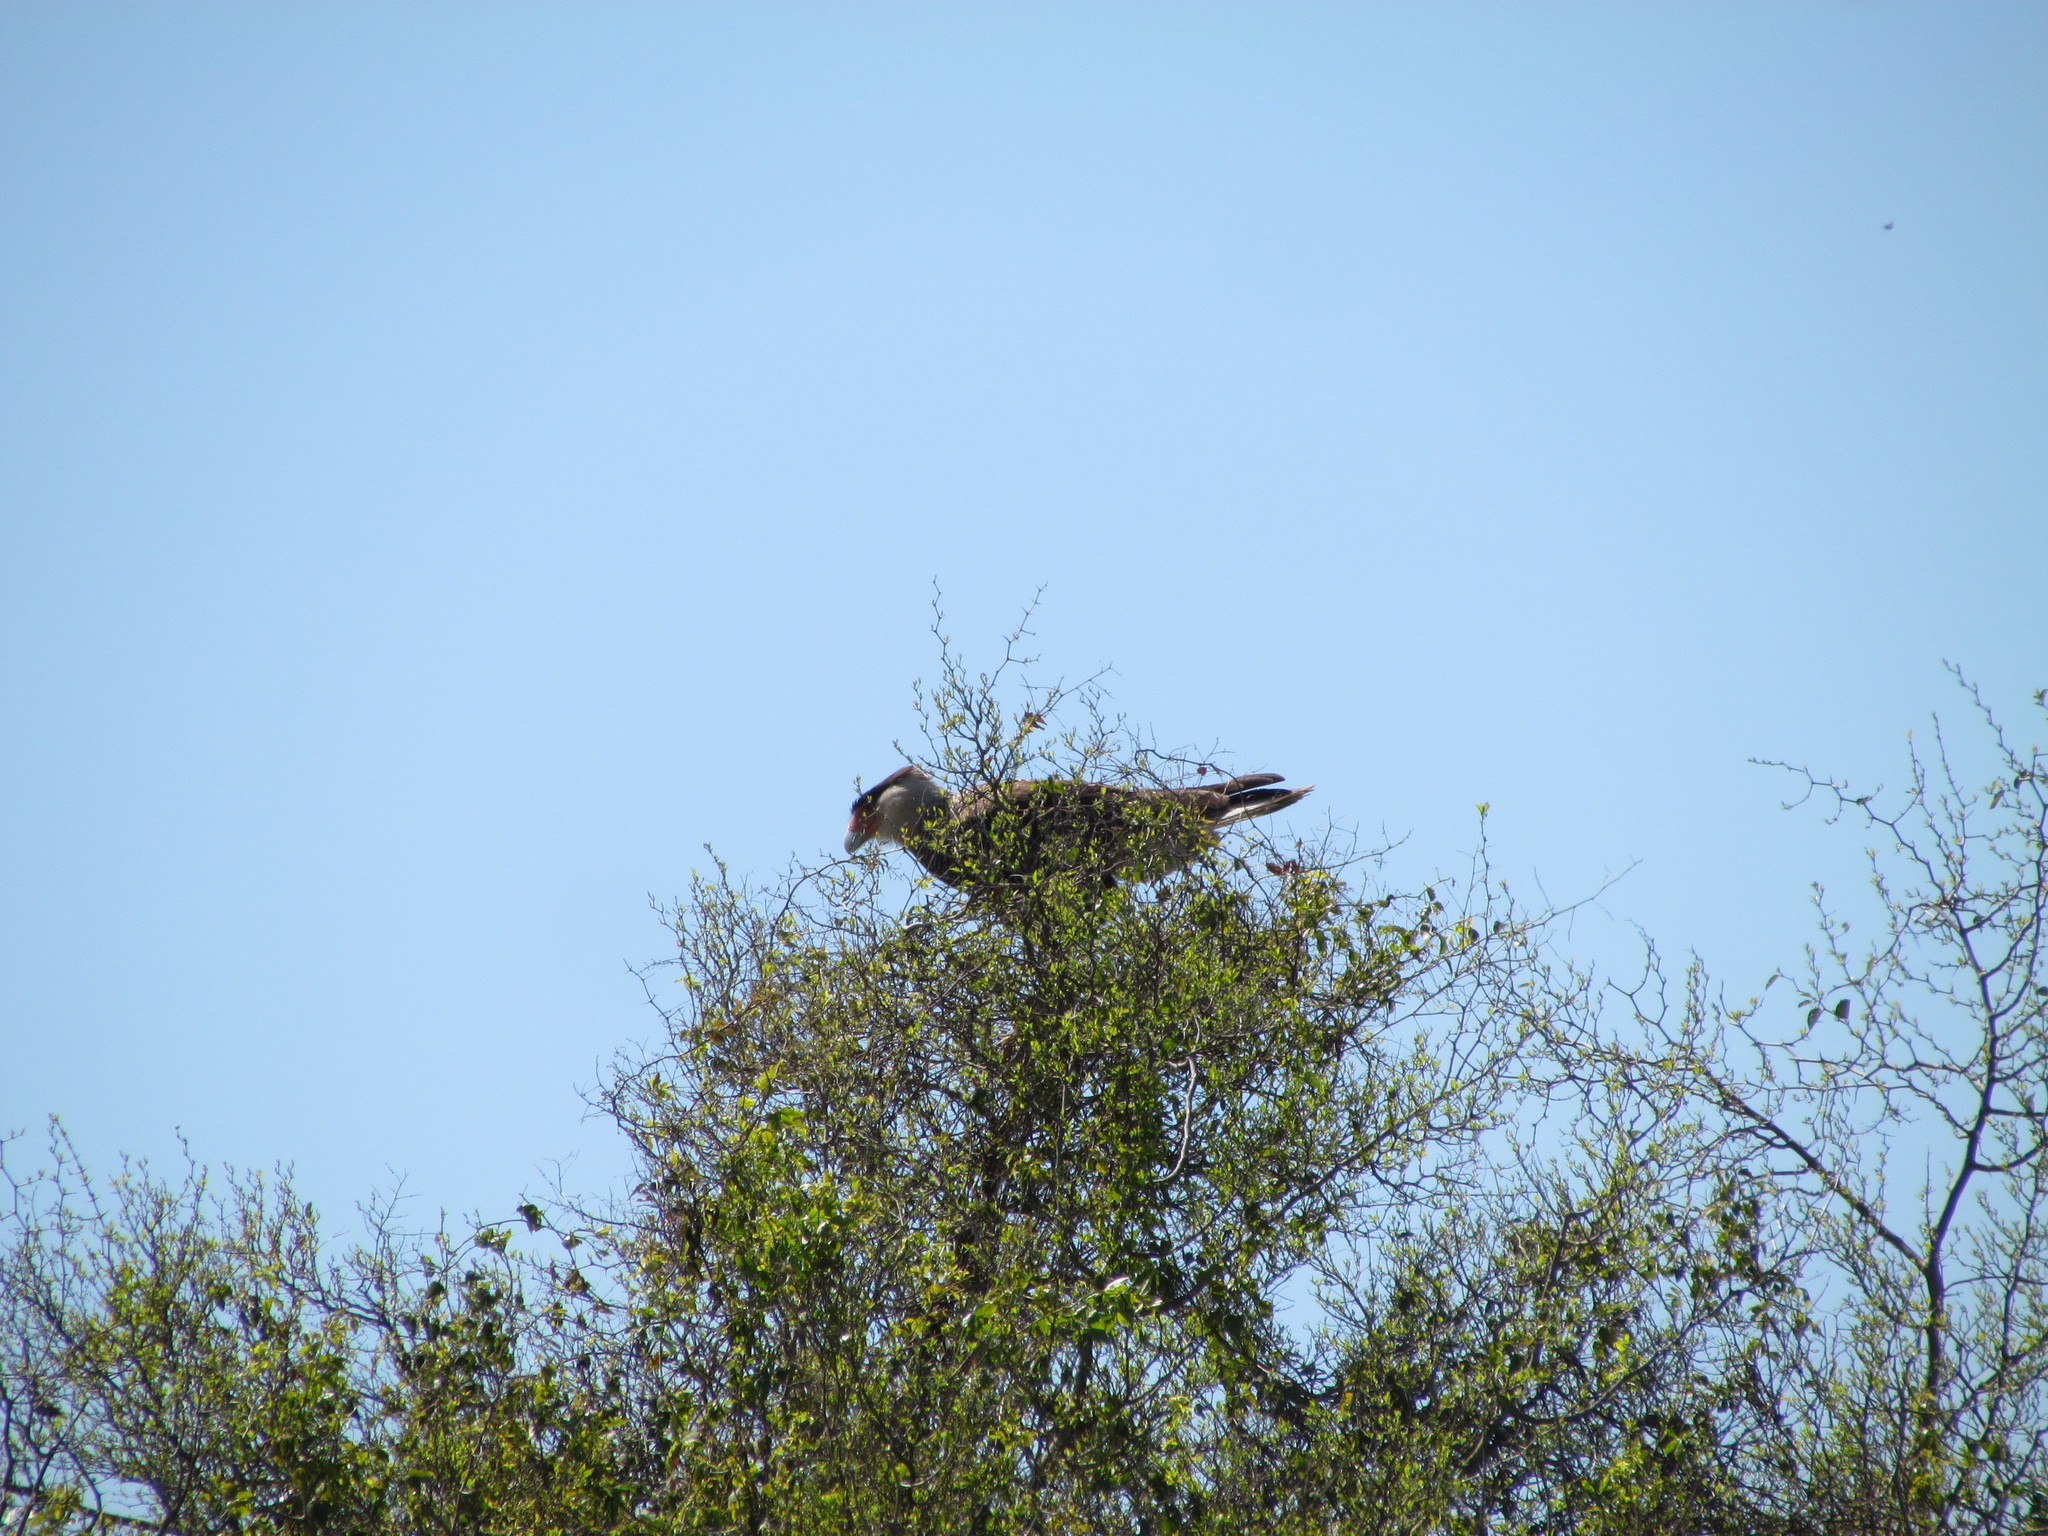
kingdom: Animalia
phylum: Chordata
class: Aves
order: Falconiformes
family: Falconidae
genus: Caracara
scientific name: Caracara plancus
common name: Southern caracara
